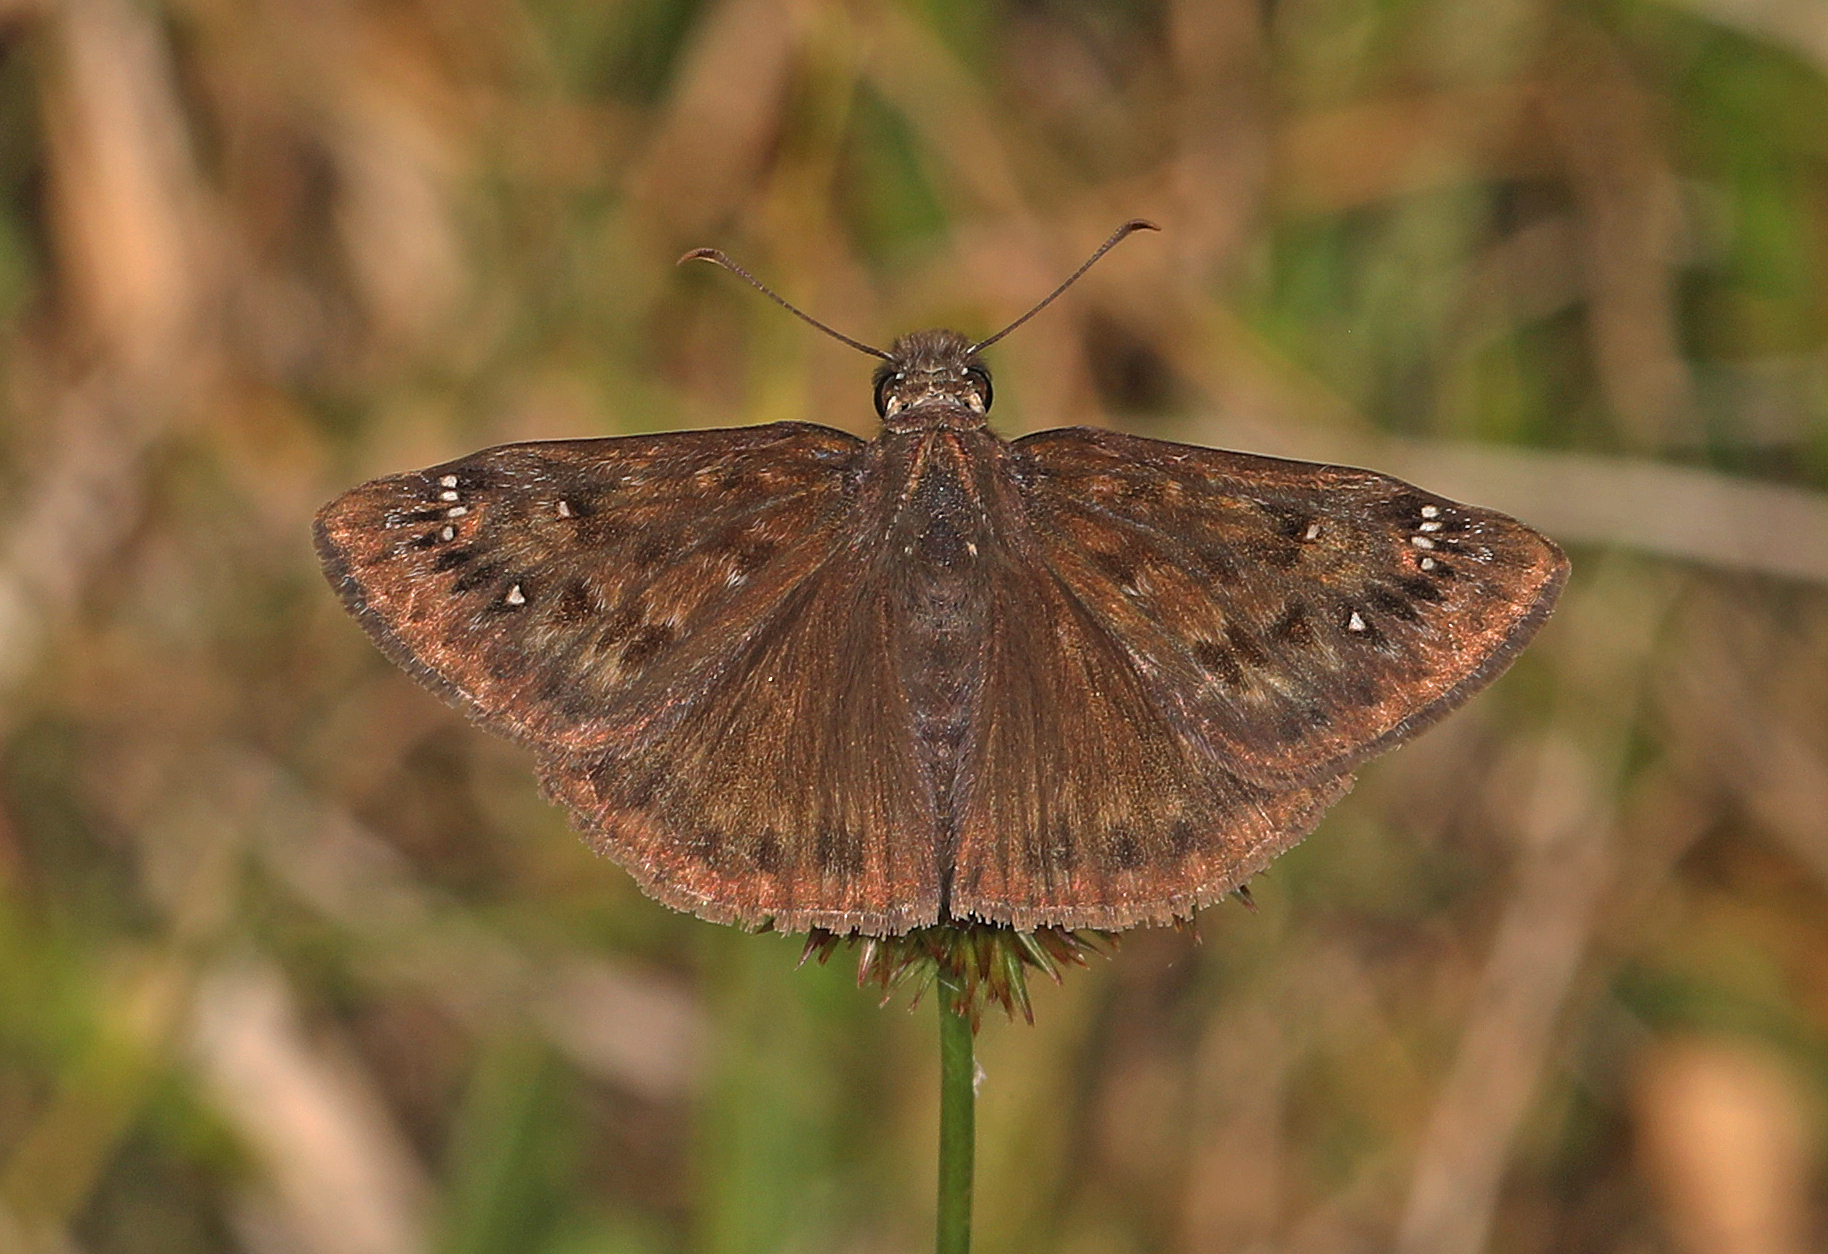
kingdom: Animalia
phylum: Arthropoda
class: Insecta
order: Lepidoptera
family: Hesperiidae
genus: Erynnis
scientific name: Erynnis horatius
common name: Horace's duskywing
